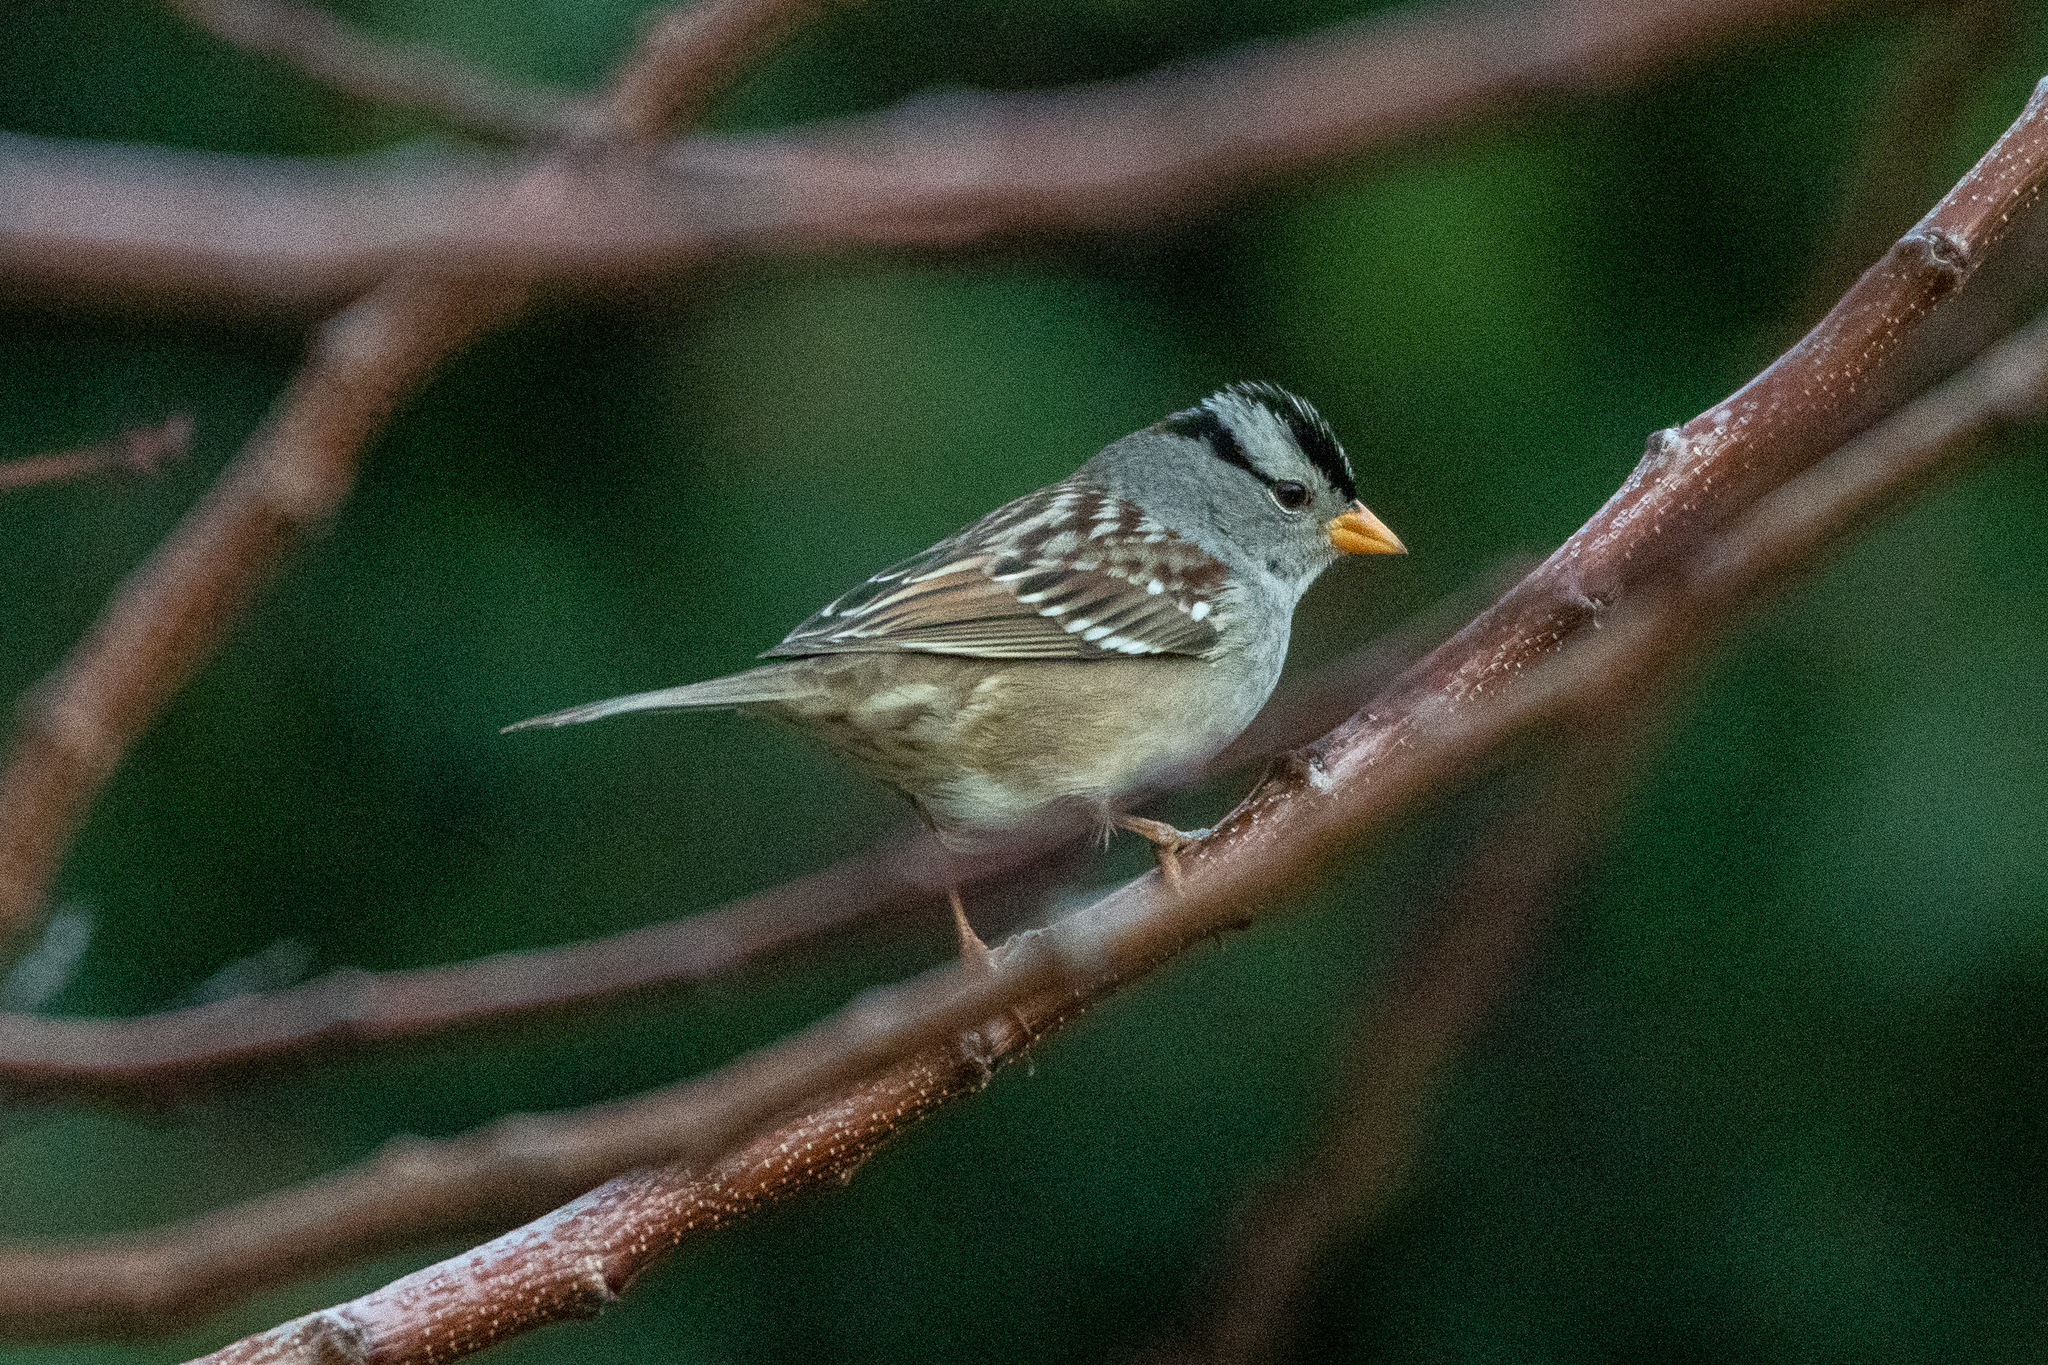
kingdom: Animalia
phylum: Chordata
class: Aves
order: Passeriformes
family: Passerellidae
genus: Zonotrichia
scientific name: Zonotrichia leucophrys
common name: White-crowned sparrow
